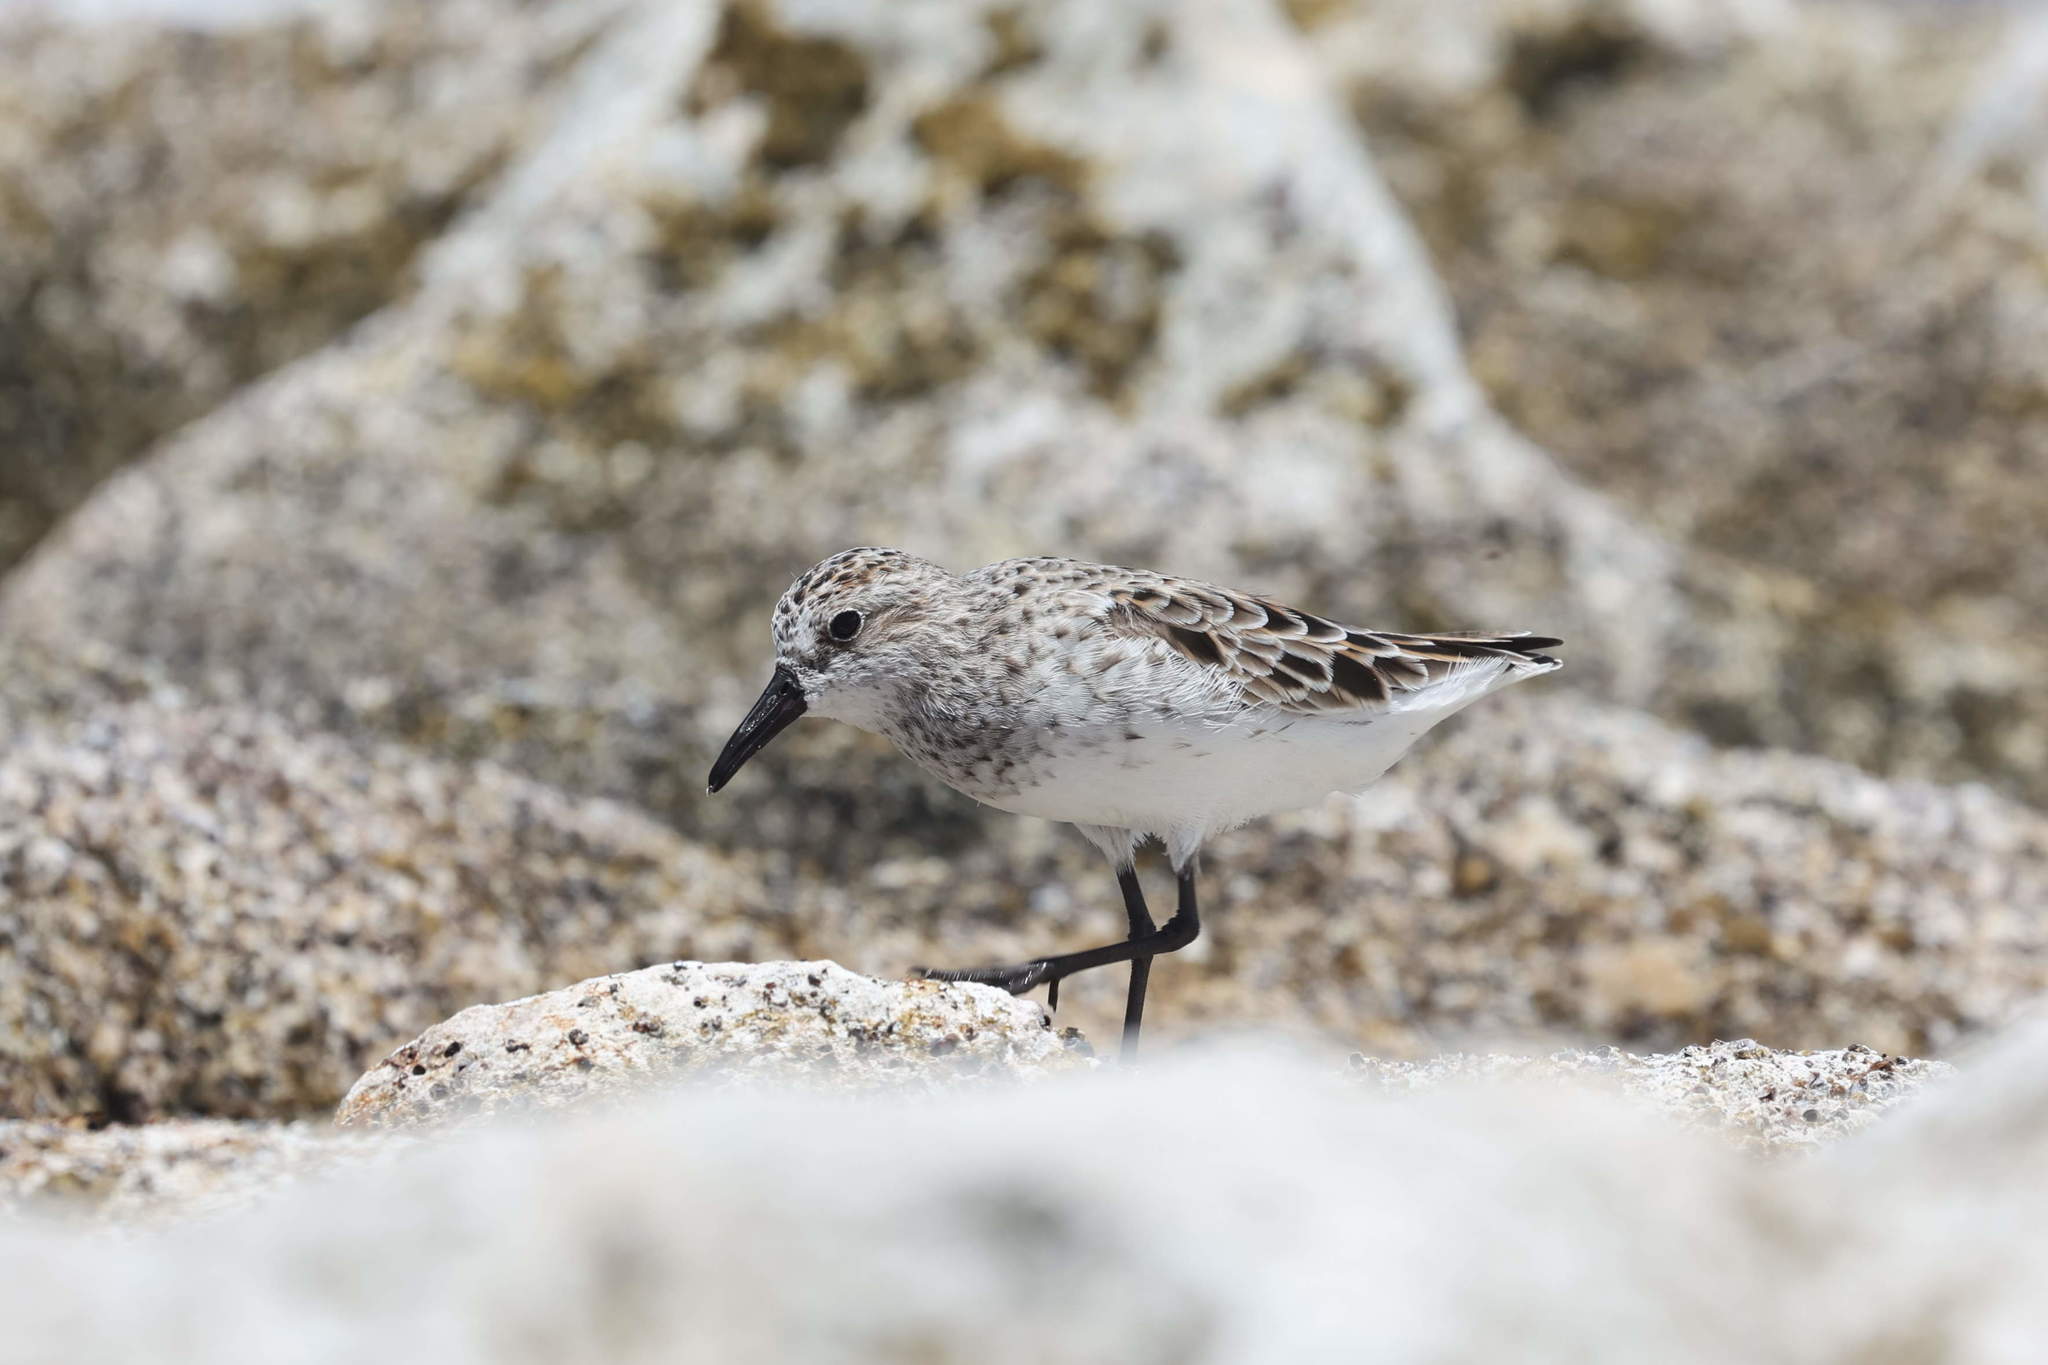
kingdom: Animalia
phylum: Chordata
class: Aves
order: Charadriiformes
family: Scolopacidae
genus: Calidris
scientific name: Calidris alba
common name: Sanderling
